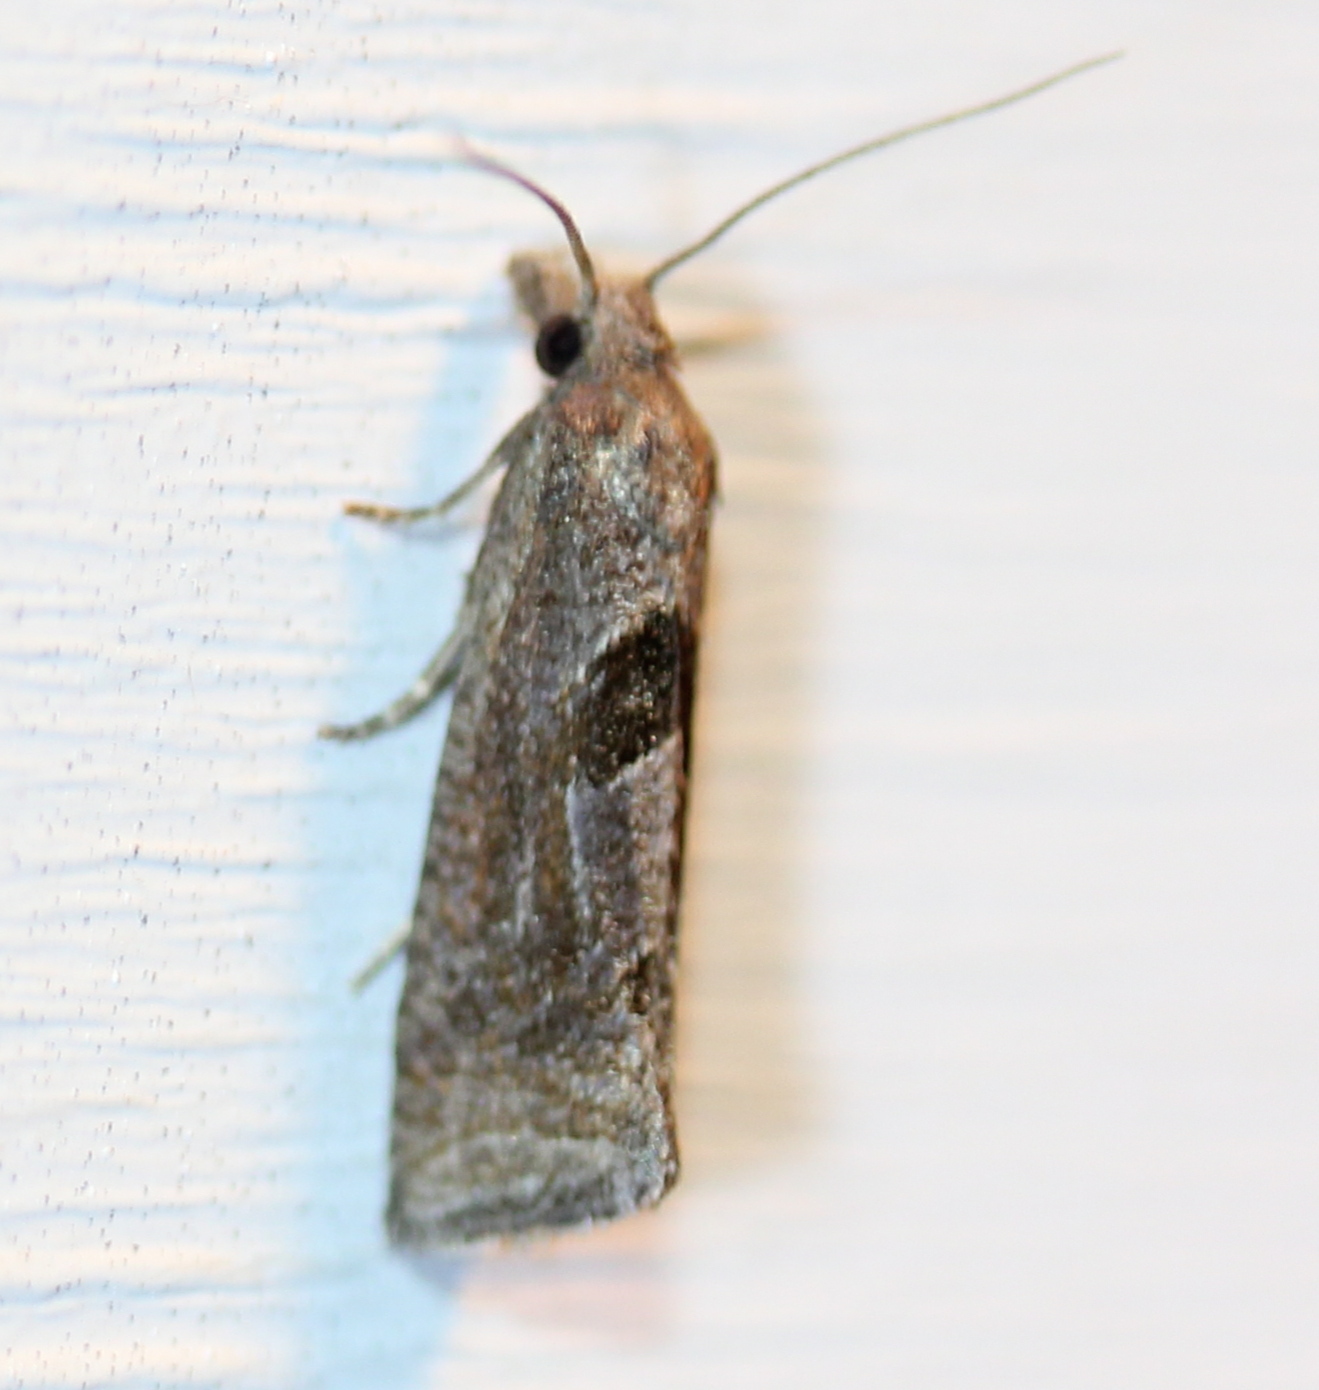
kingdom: Animalia
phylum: Arthropoda
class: Insecta
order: Lepidoptera
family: Tortricidae
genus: Pelochrista
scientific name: Pelochrista similiana
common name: Similar eucosma
